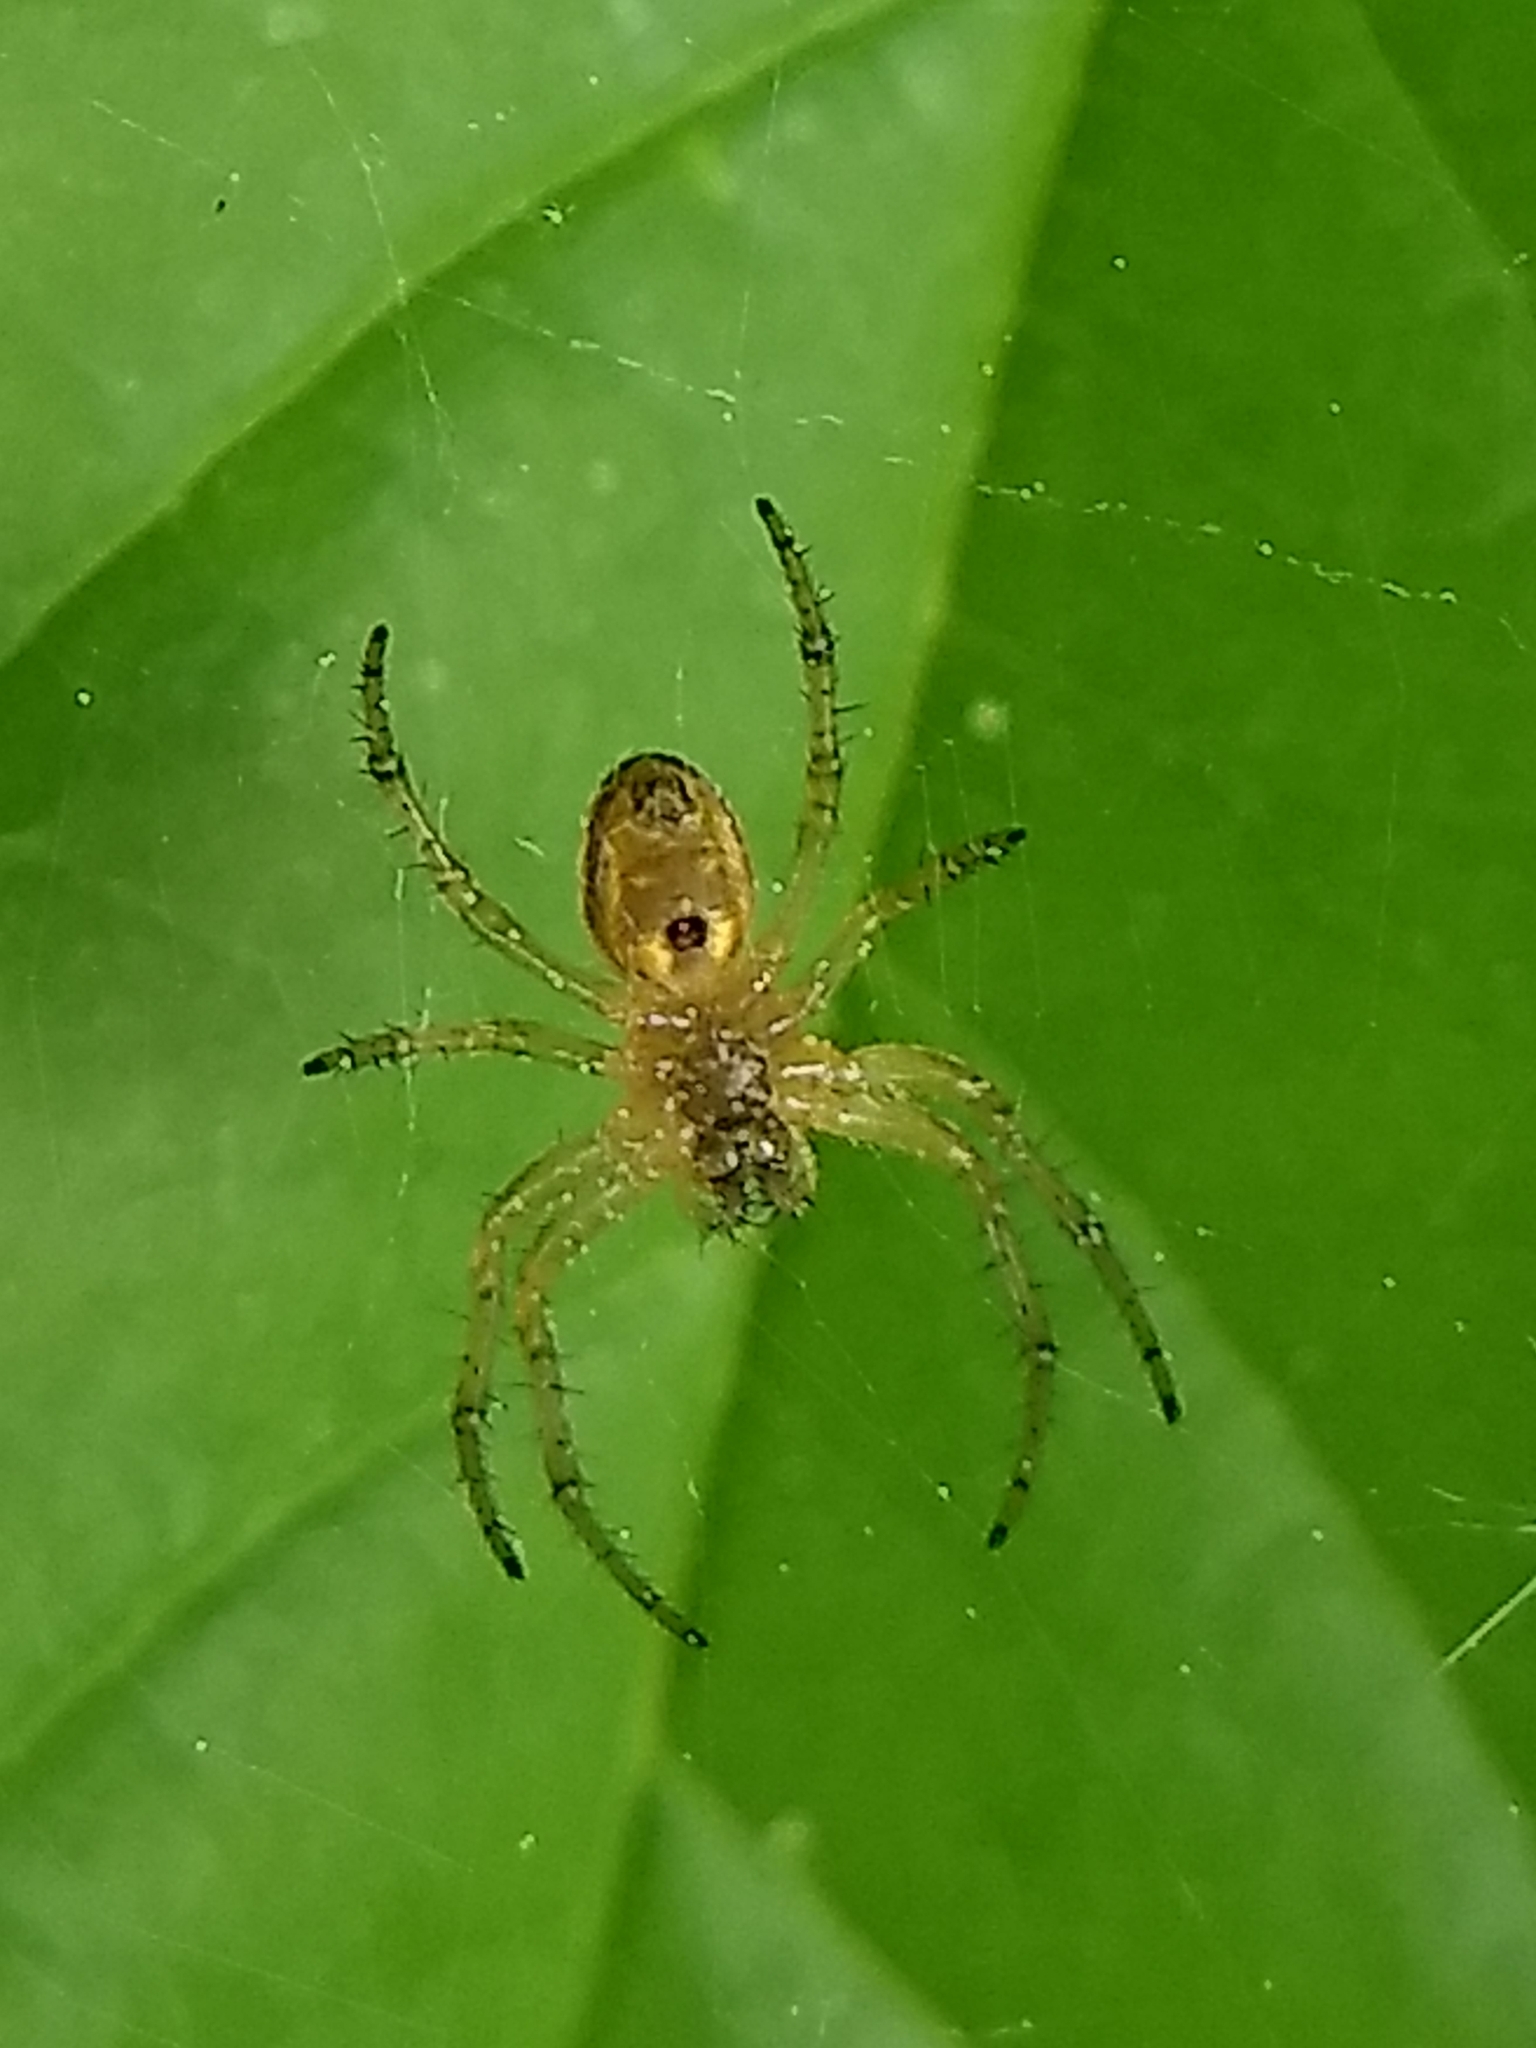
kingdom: Animalia
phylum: Arthropoda
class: Arachnida
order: Araneae
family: Araneidae
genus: Araniella
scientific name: Araniella displicata
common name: Sixspotted orb weaver
